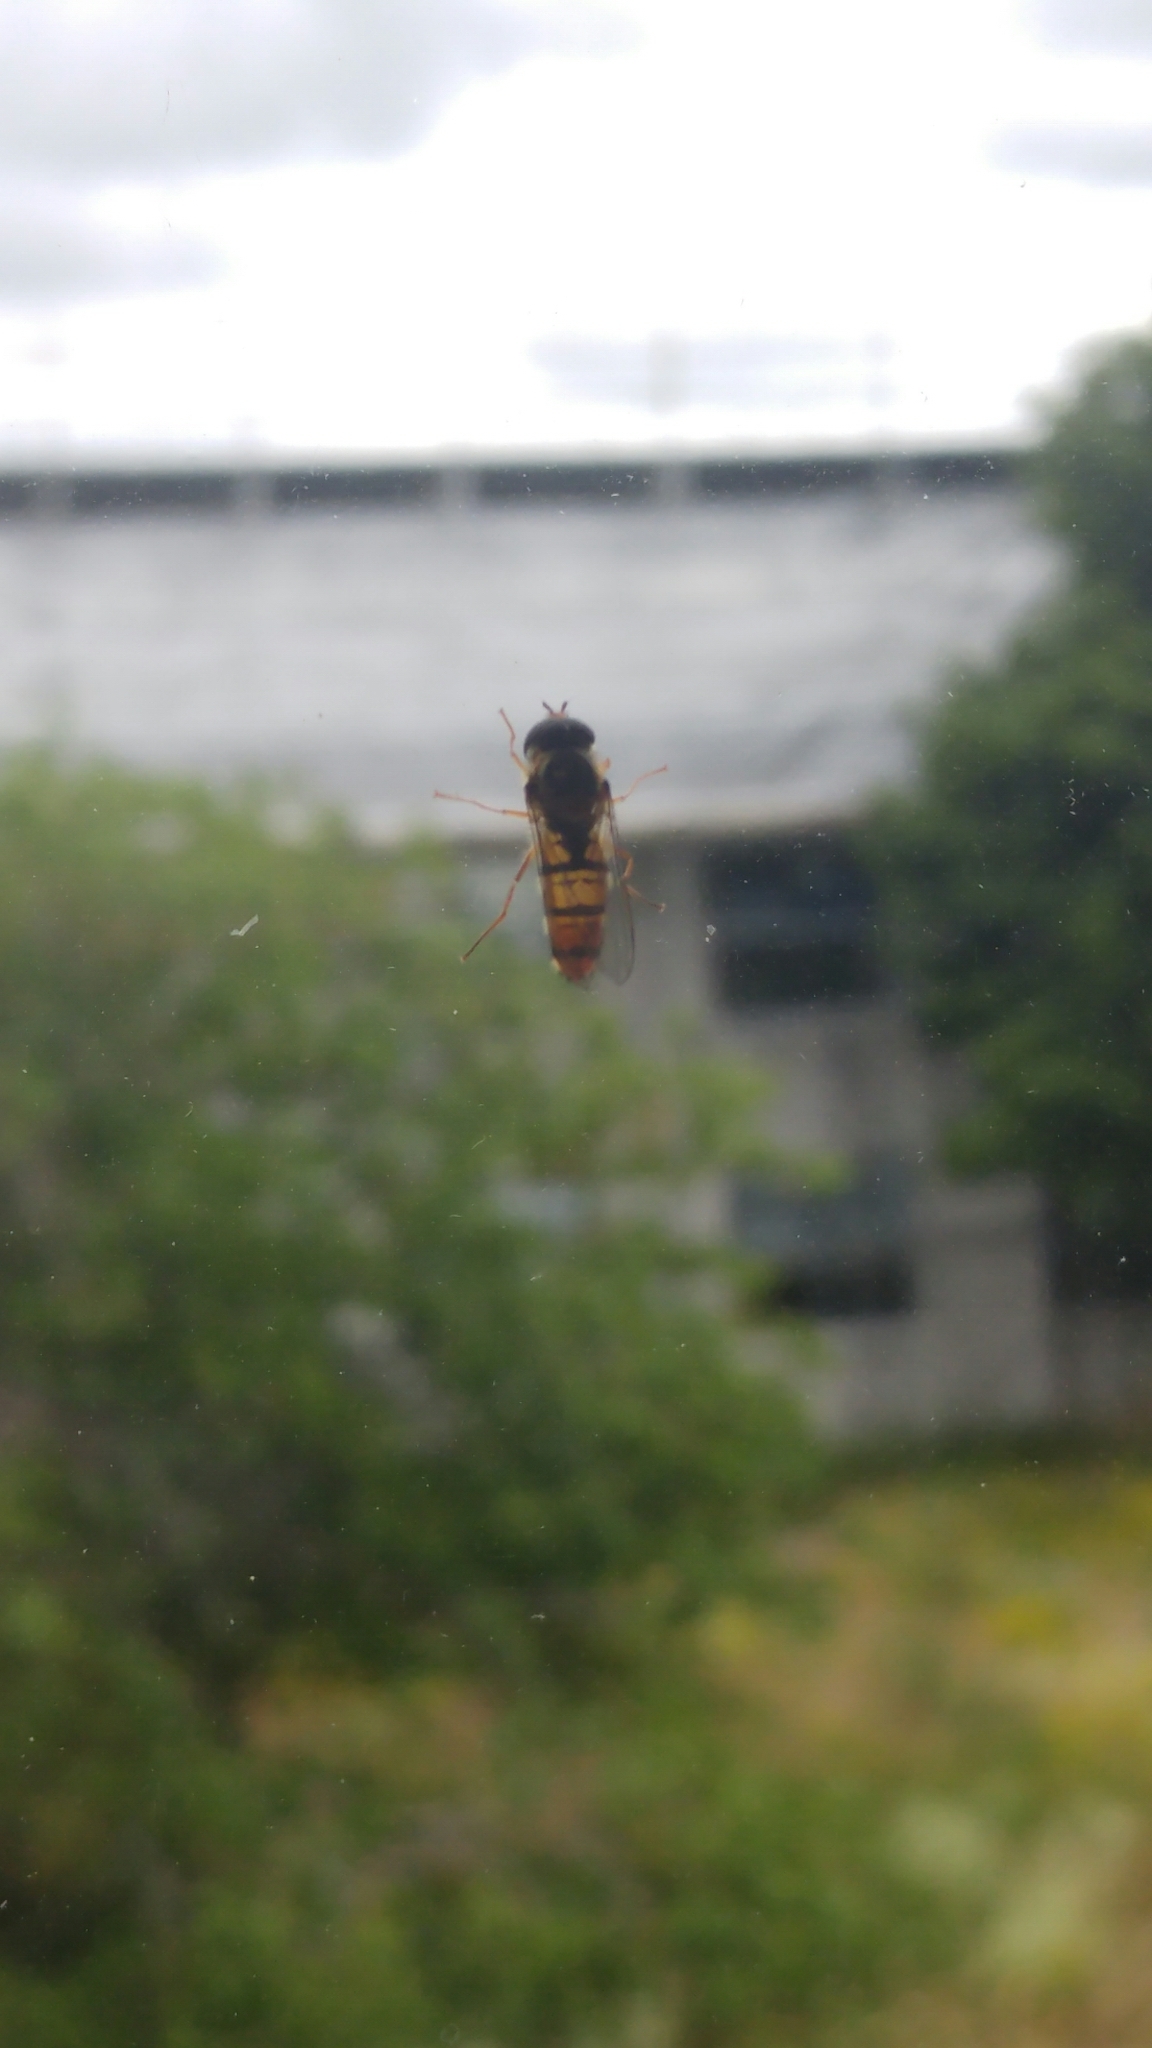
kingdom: Animalia
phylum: Arthropoda
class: Insecta
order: Diptera
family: Syrphidae
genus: Episyrphus
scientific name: Episyrphus balteatus
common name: Marmalade hoverfly
